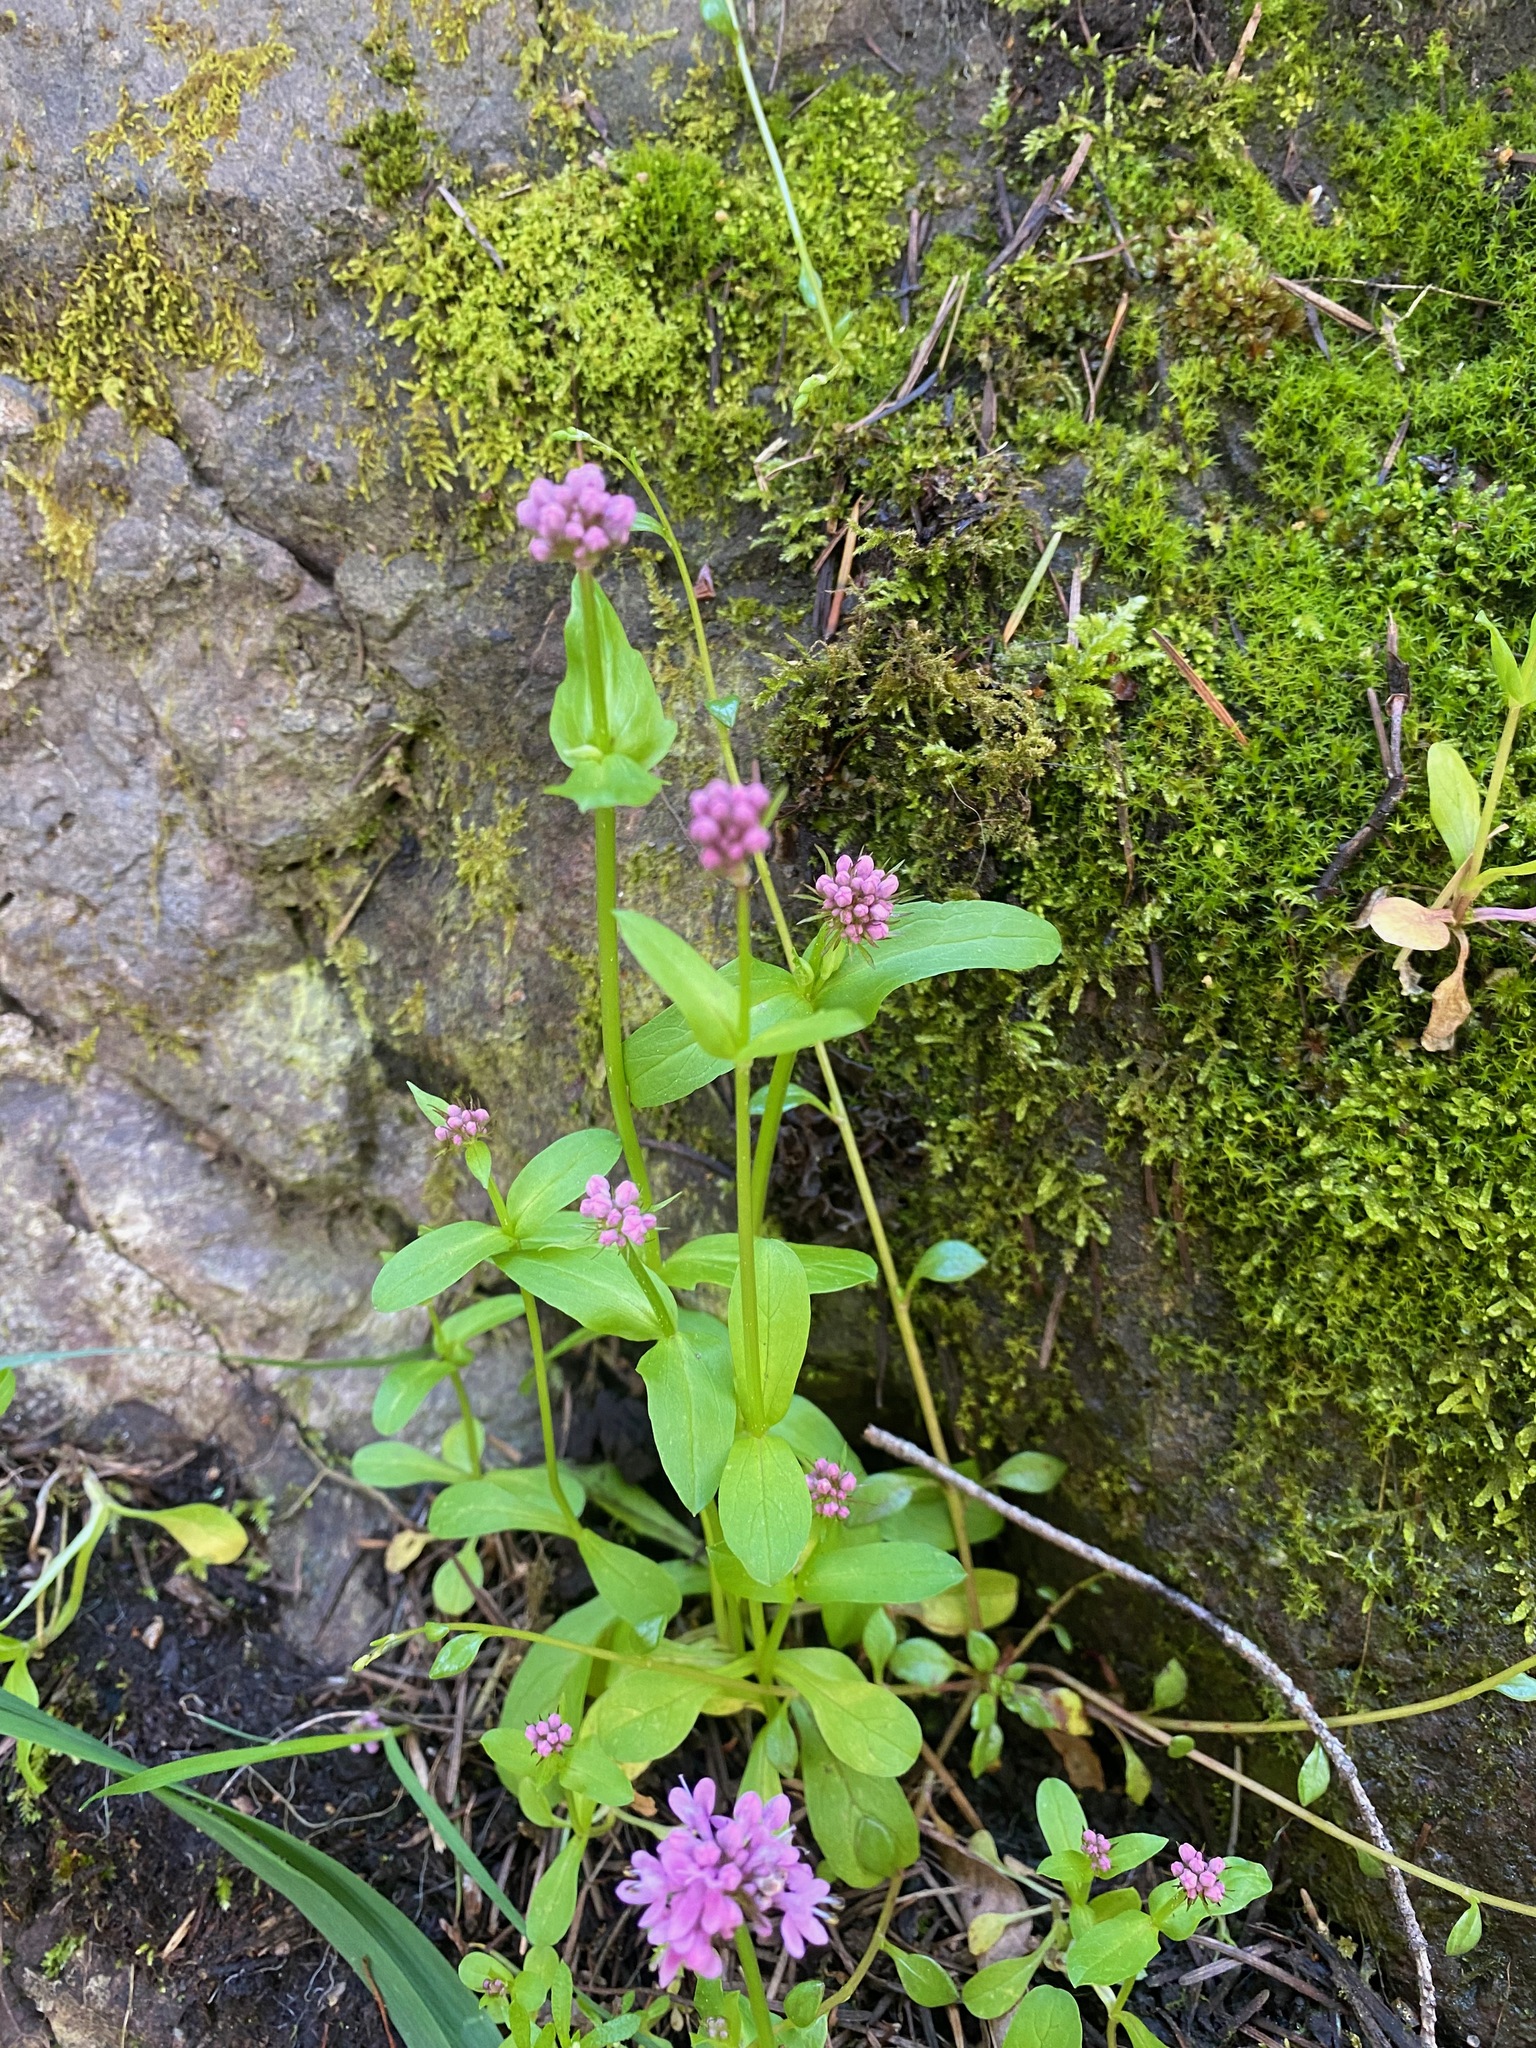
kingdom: Plantae
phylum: Tracheophyta
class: Magnoliopsida
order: Dipsacales
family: Caprifoliaceae
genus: Plectritis
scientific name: Plectritis congesta
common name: Pink plectritis
